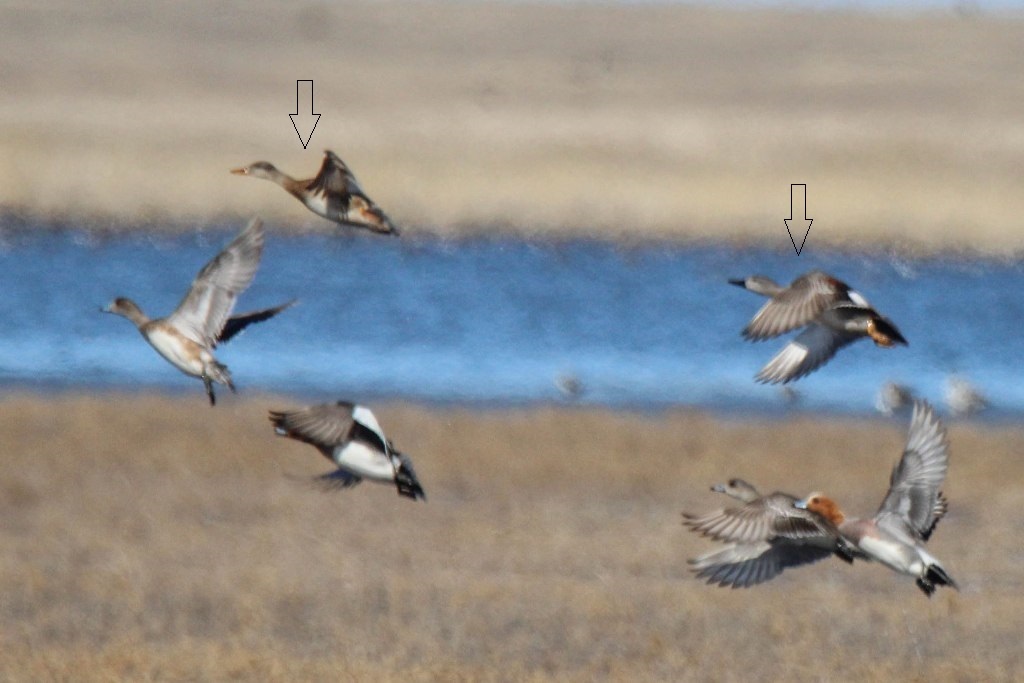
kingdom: Animalia
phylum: Chordata
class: Aves
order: Anseriformes
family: Anatidae
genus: Mareca
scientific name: Mareca strepera
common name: Gadwall
